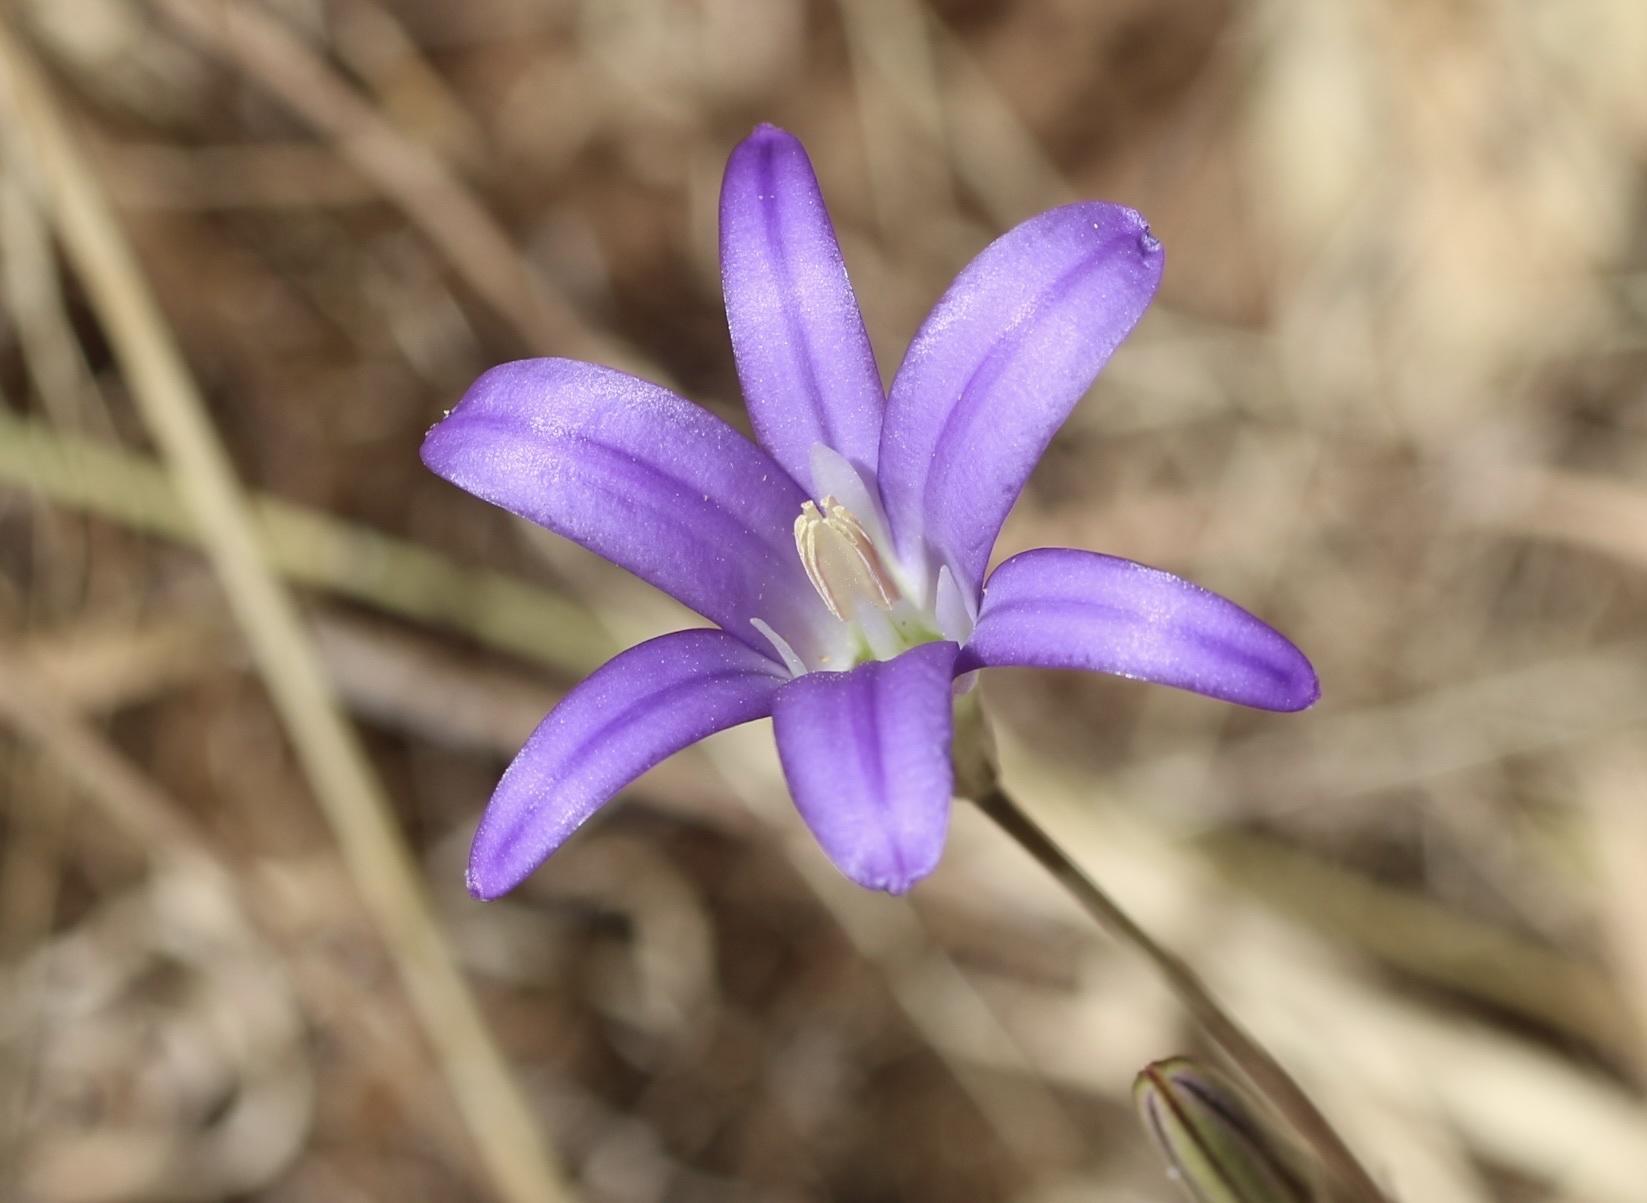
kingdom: Plantae
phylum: Tracheophyta
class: Liliopsida
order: Asparagales
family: Asparagaceae
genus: Brodiaea
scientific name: Brodiaea elegans
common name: Elegant cluster-lily
